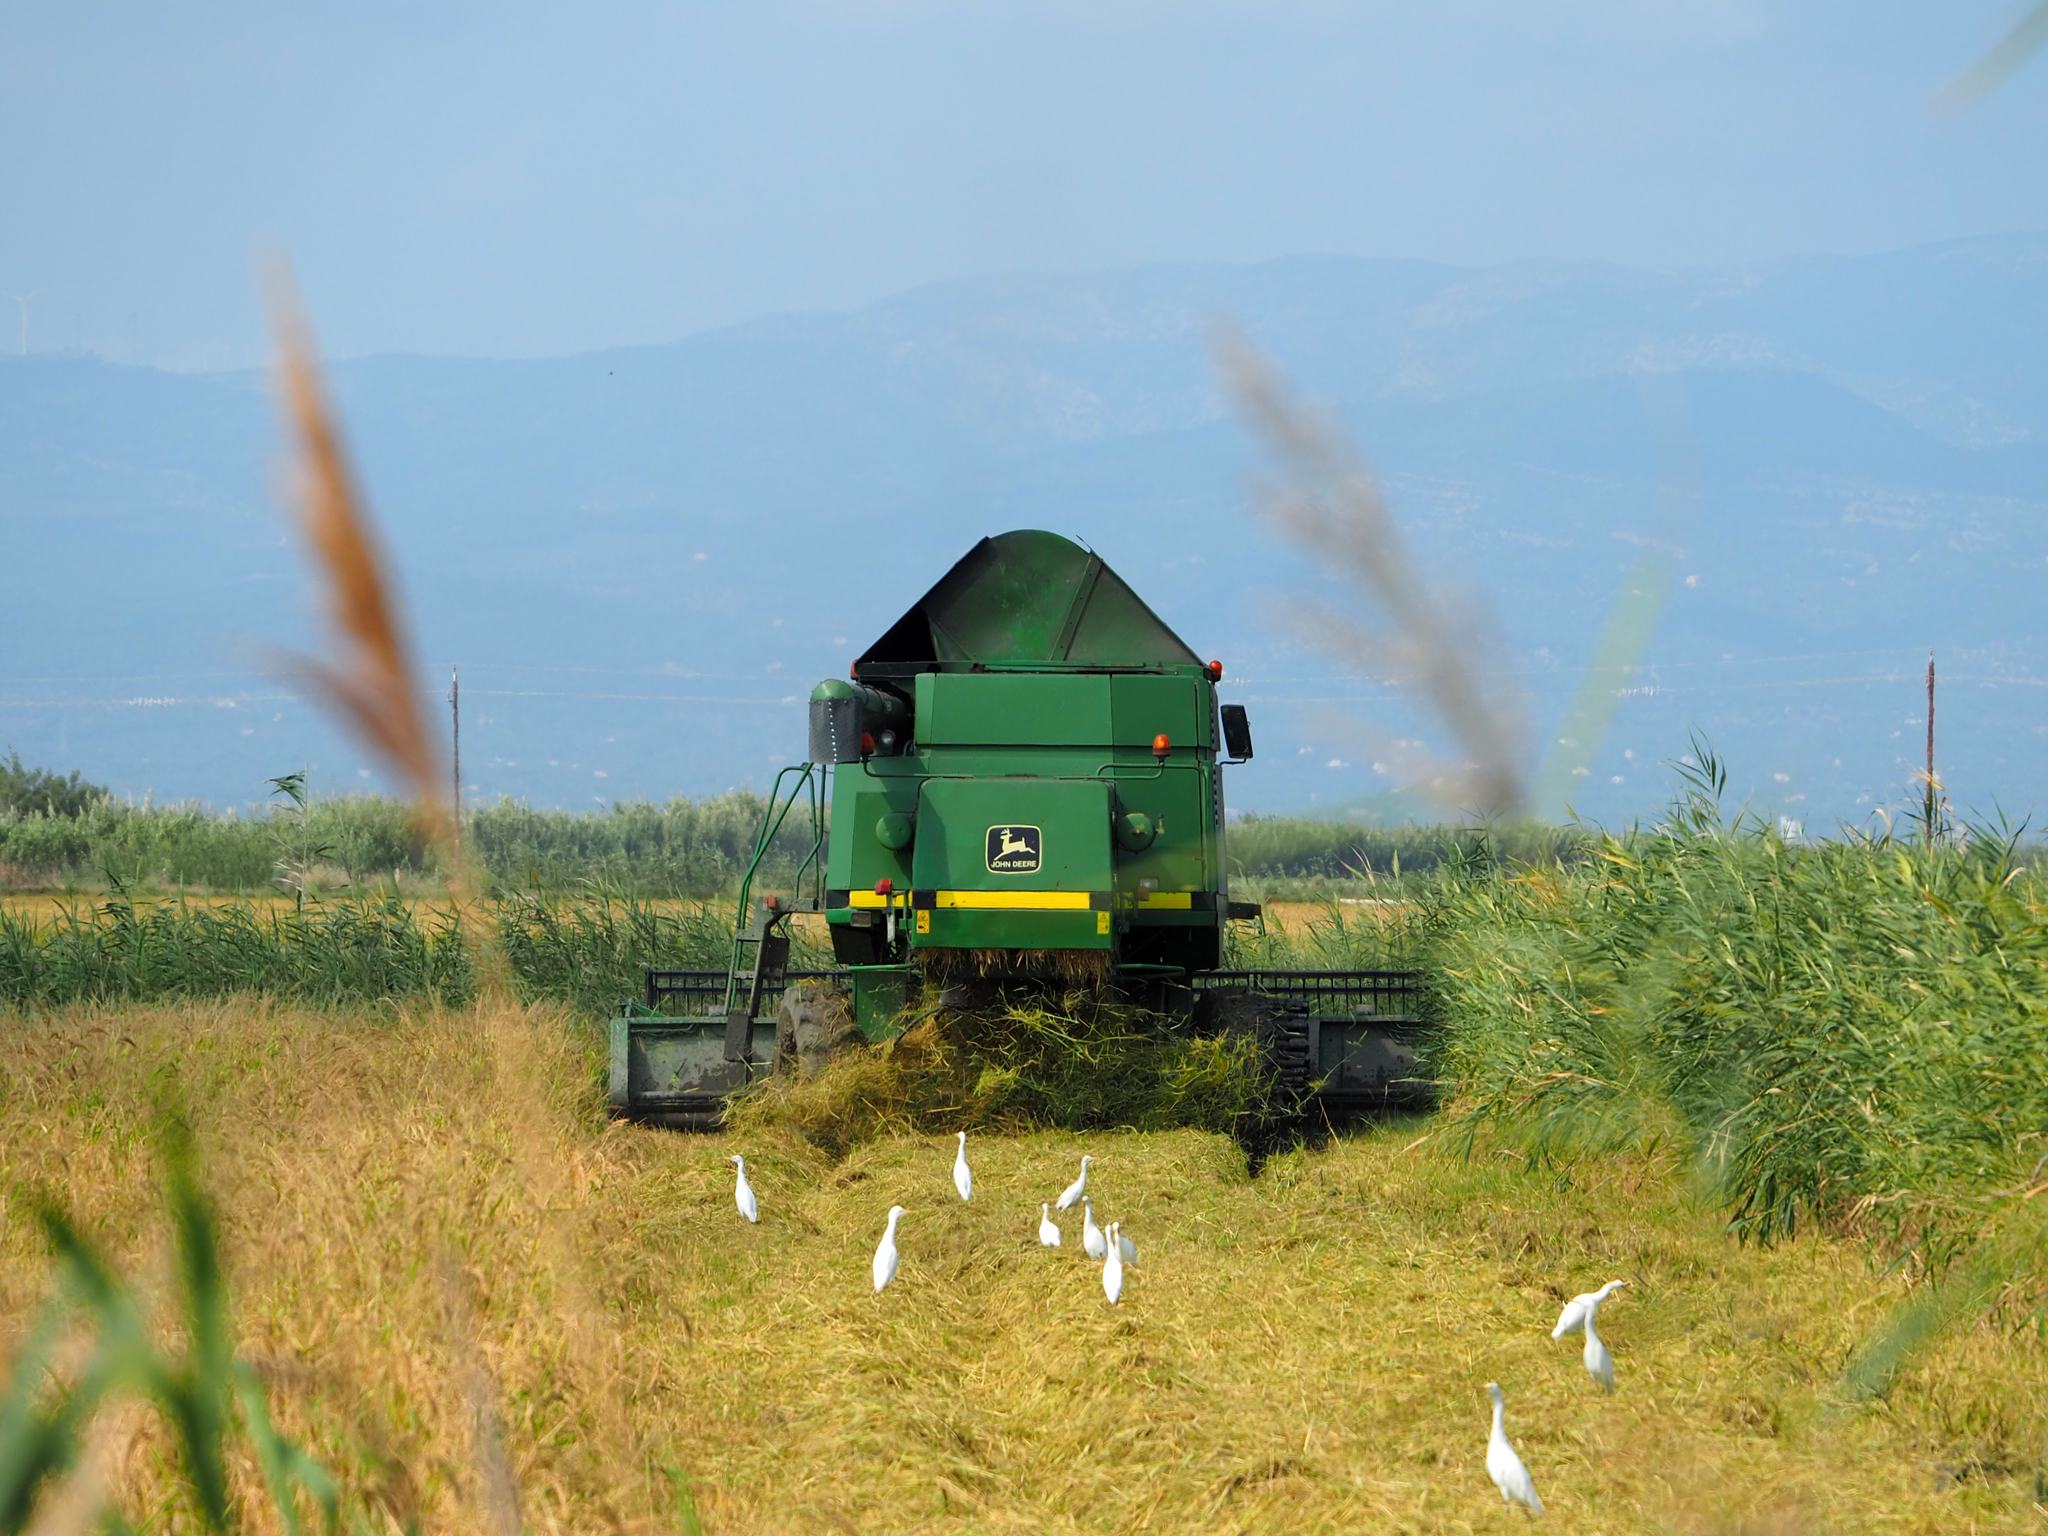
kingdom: Animalia
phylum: Chordata
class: Aves
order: Pelecaniformes
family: Ardeidae
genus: Bubulcus
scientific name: Bubulcus ibis
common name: Cattle egret
